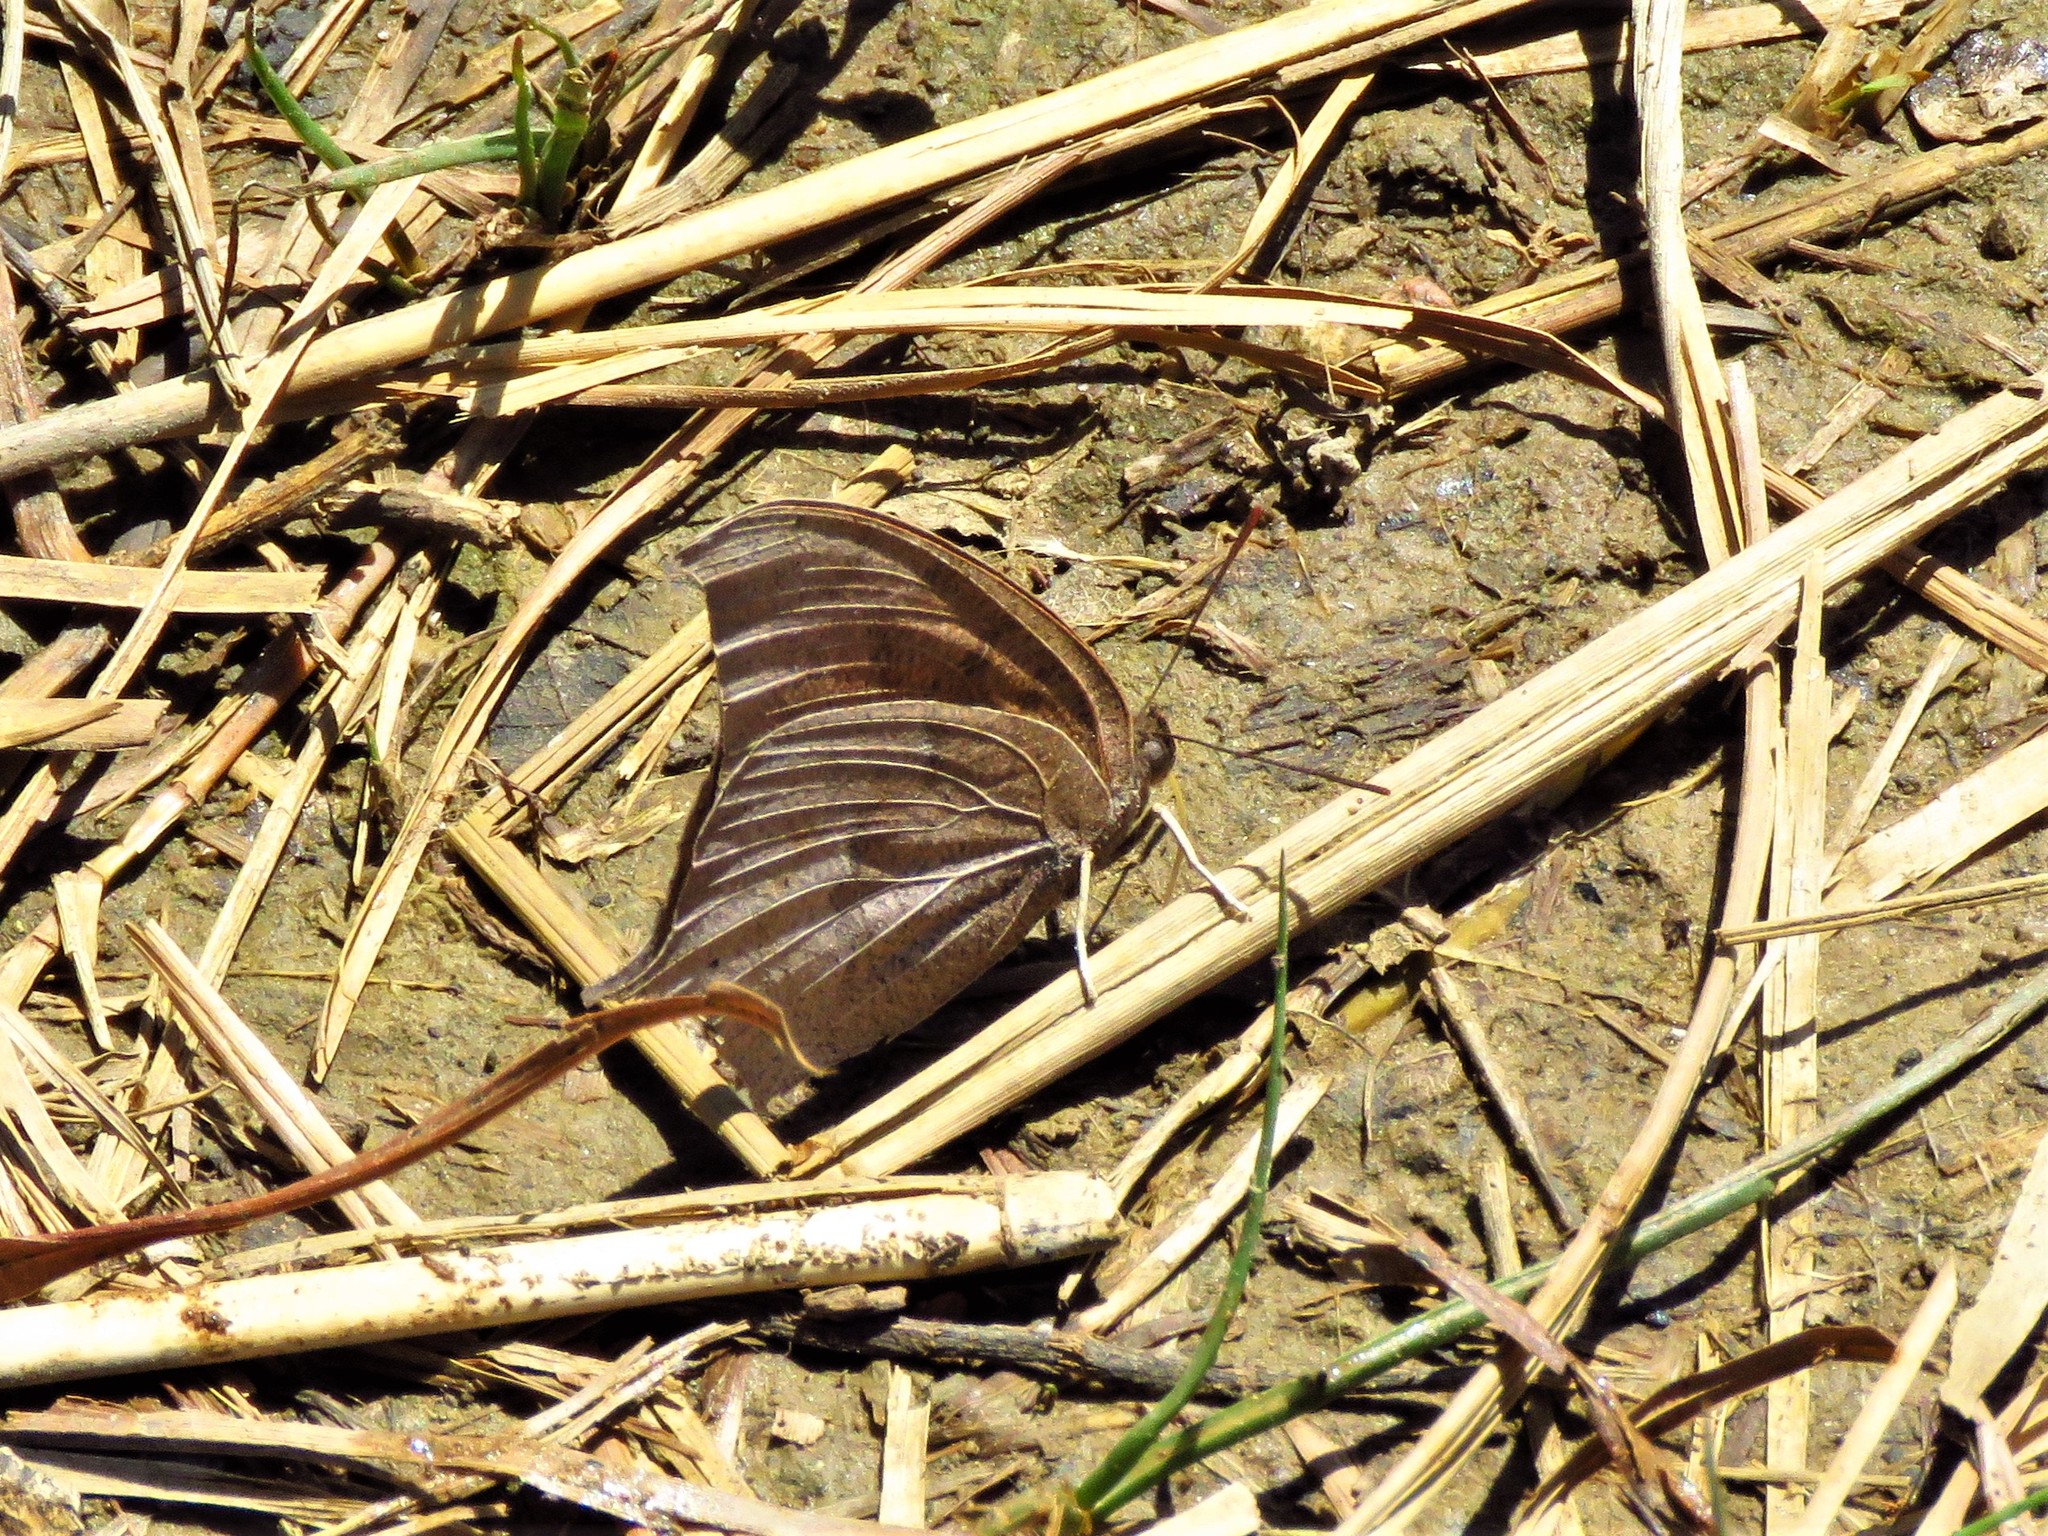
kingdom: Animalia
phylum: Arthropoda
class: Insecta
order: Lepidoptera
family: Nymphalidae
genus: Anaea
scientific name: Anaea andria
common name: Goatweed leafwing
